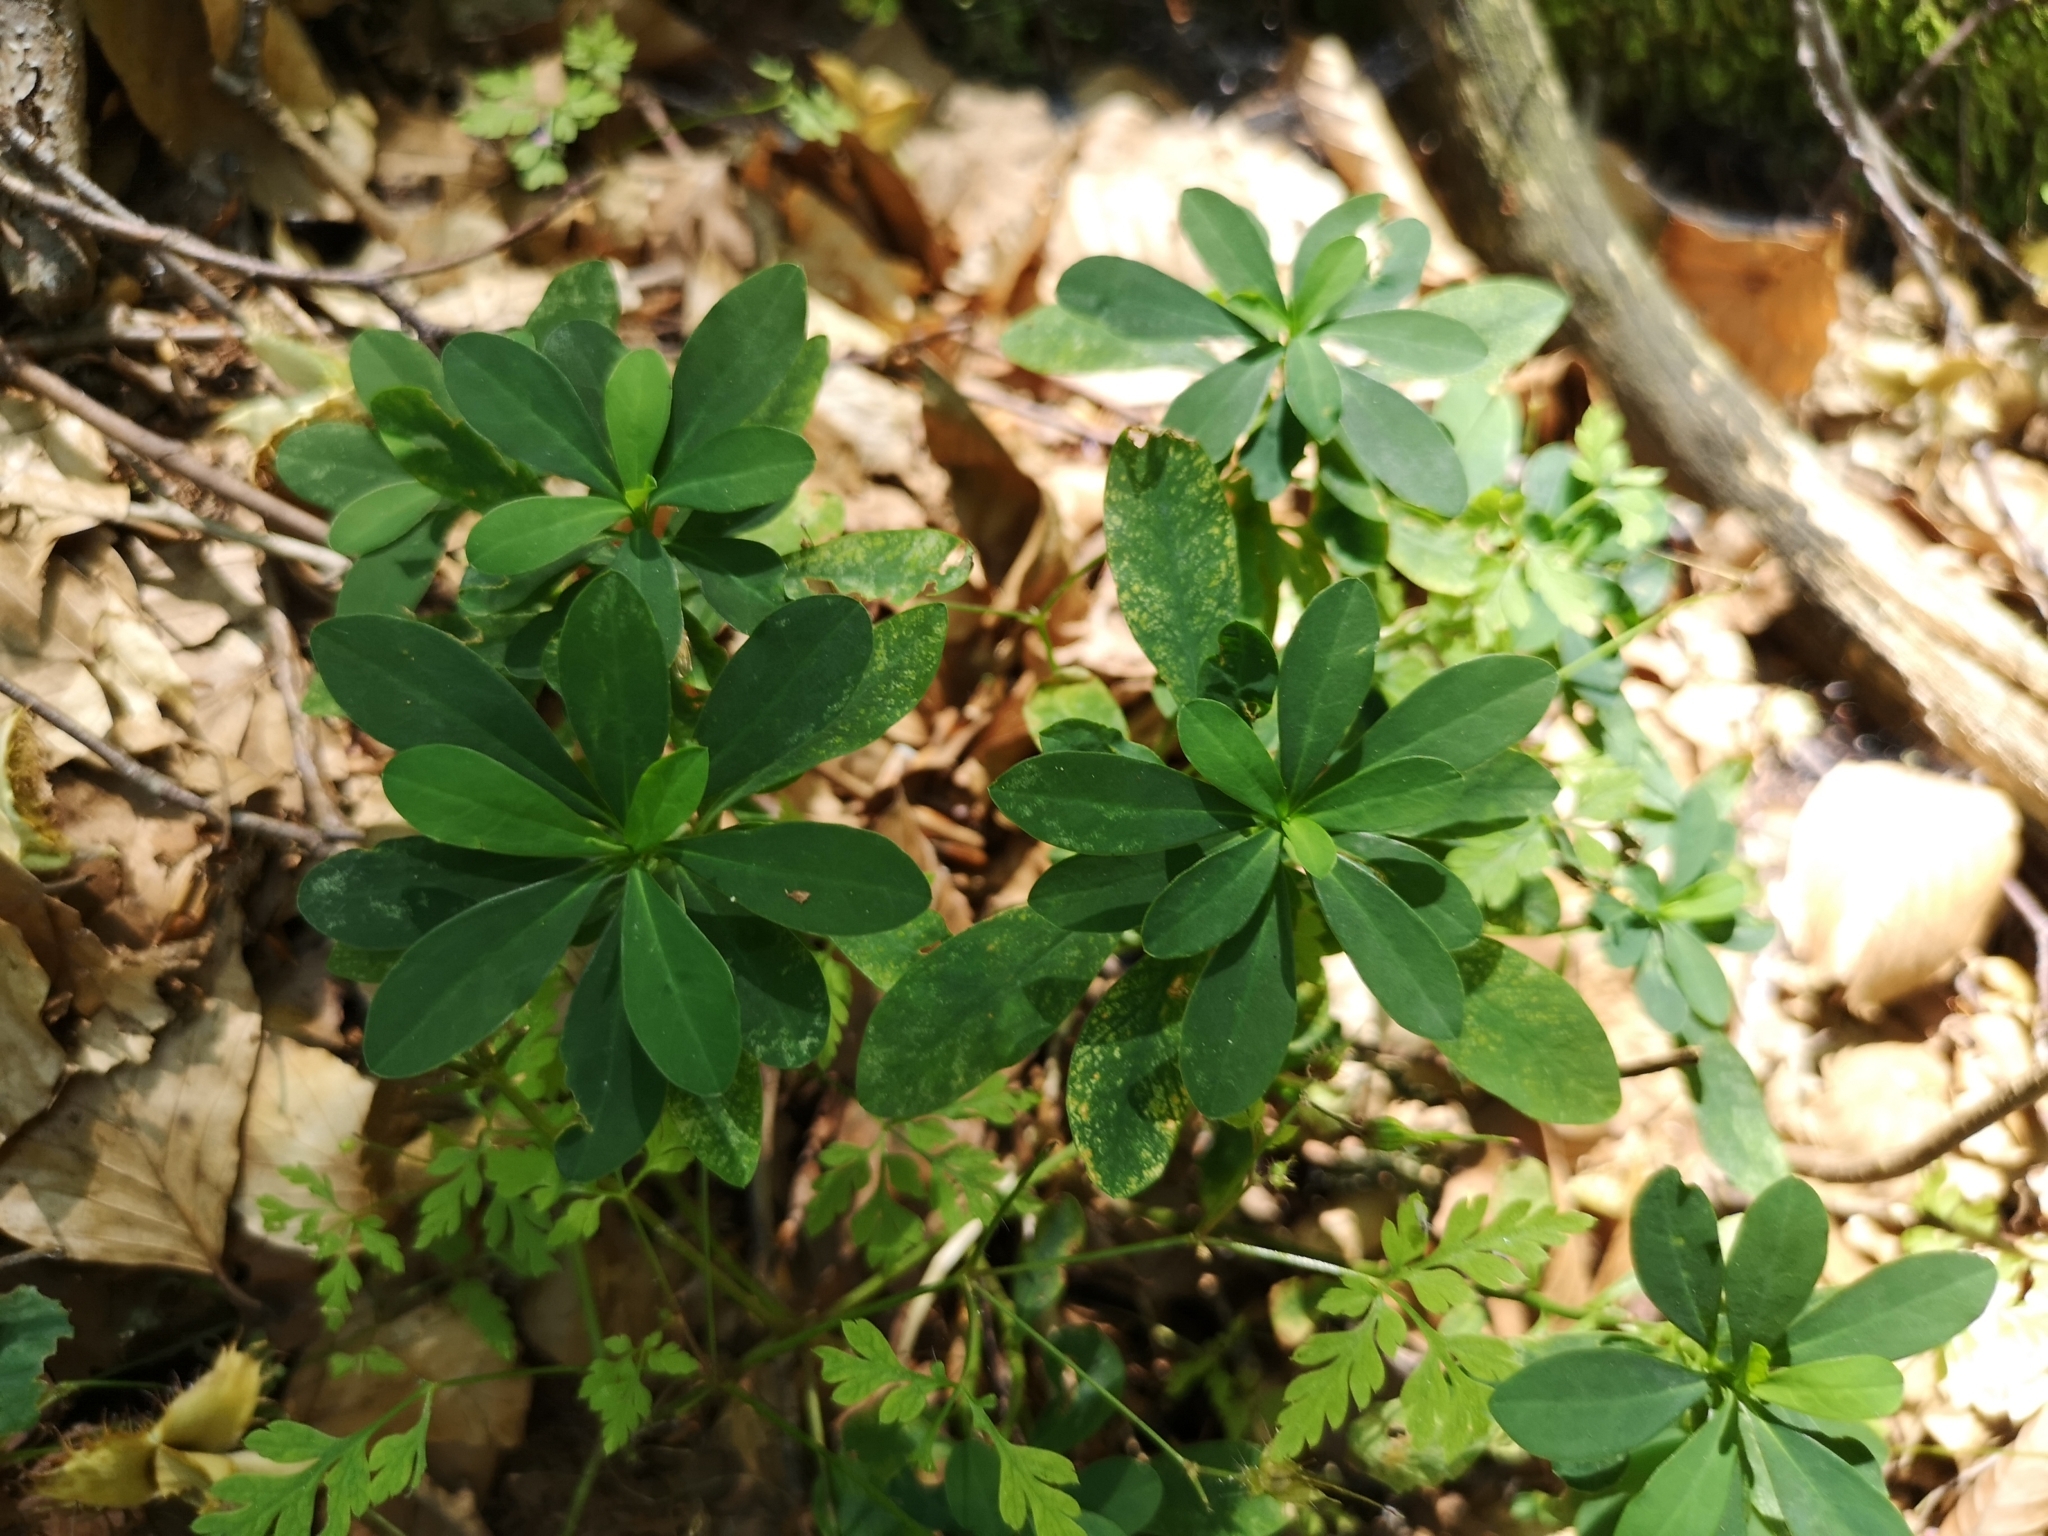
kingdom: Plantae
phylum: Tracheophyta
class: Magnoliopsida
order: Malpighiales
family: Euphorbiaceae
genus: Euphorbia
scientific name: Euphorbia amygdaloides
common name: Wood spurge
